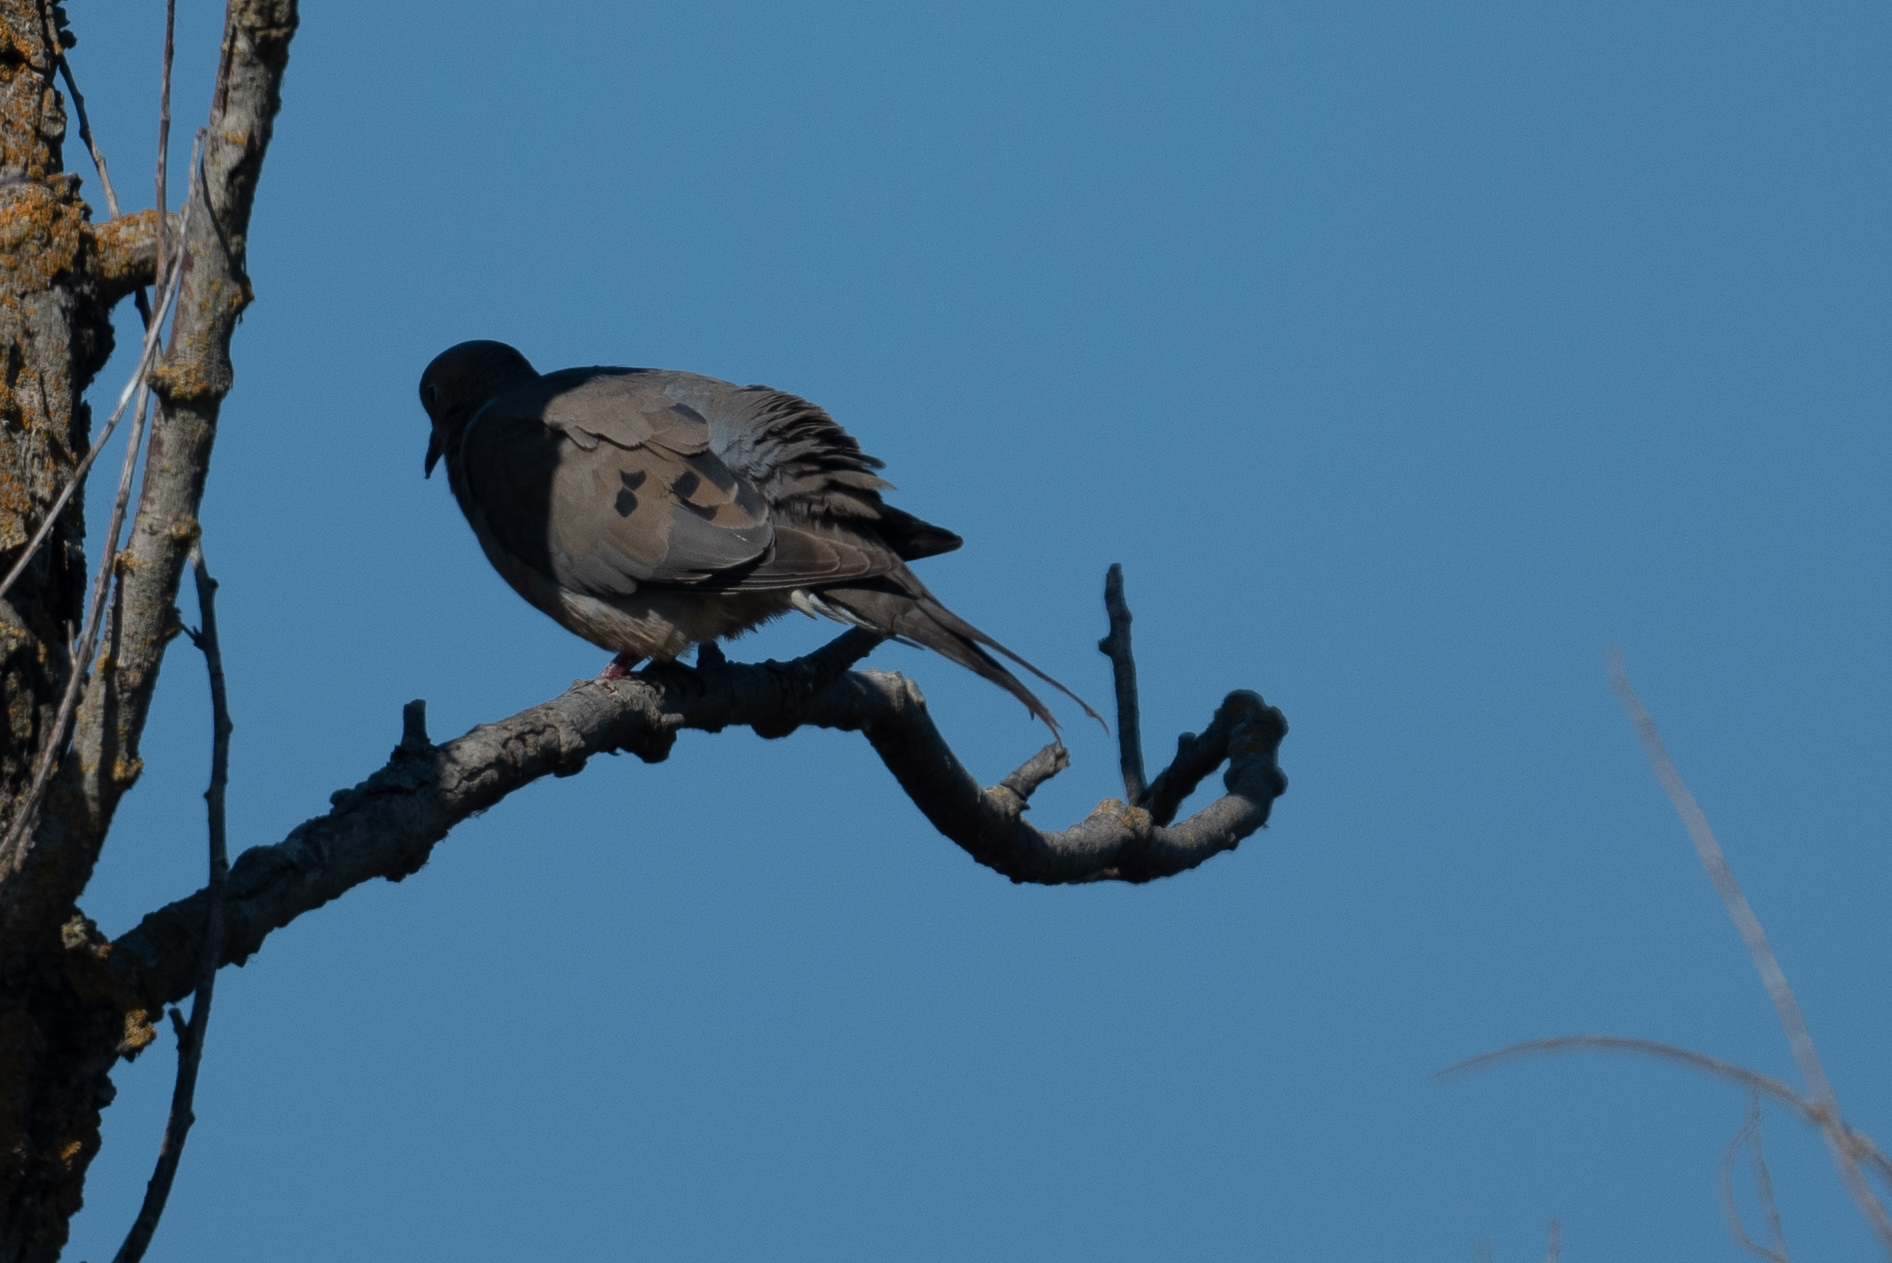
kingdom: Animalia
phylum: Chordata
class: Aves
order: Columbiformes
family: Columbidae
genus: Zenaida
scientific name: Zenaida macroura
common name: Mourning dove
